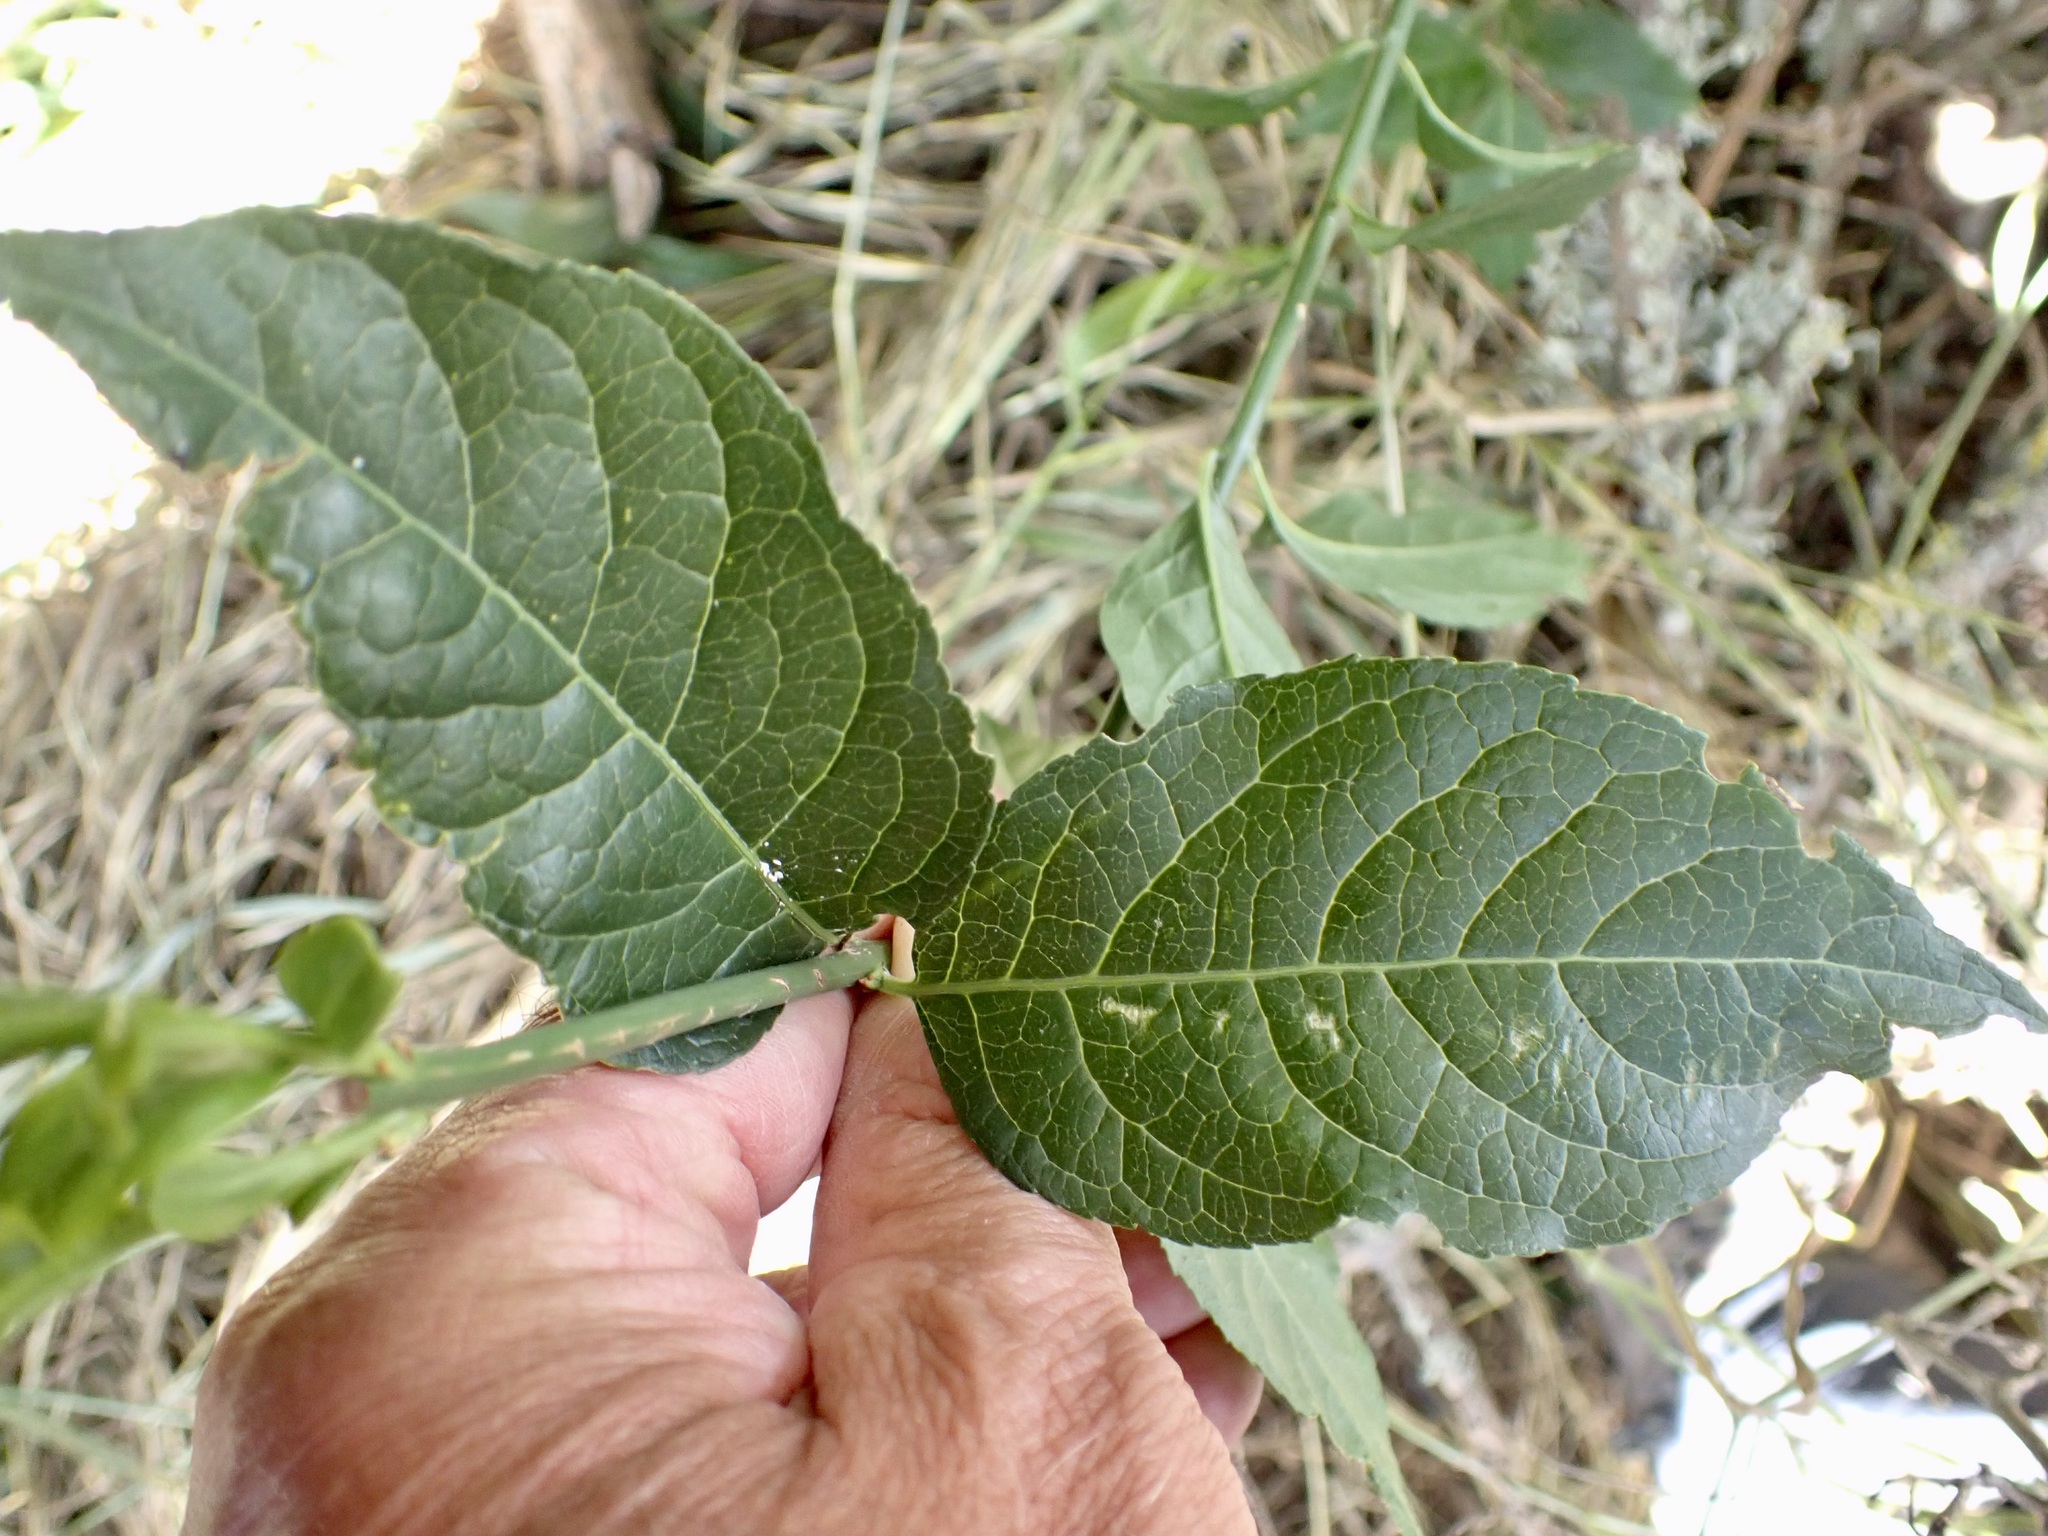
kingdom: Plantae
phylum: Tracheophyta
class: Magnoliopsida
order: Celastrales
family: Celastraceae
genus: Euonymus
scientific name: Euonymus europaeus
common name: Spindle
